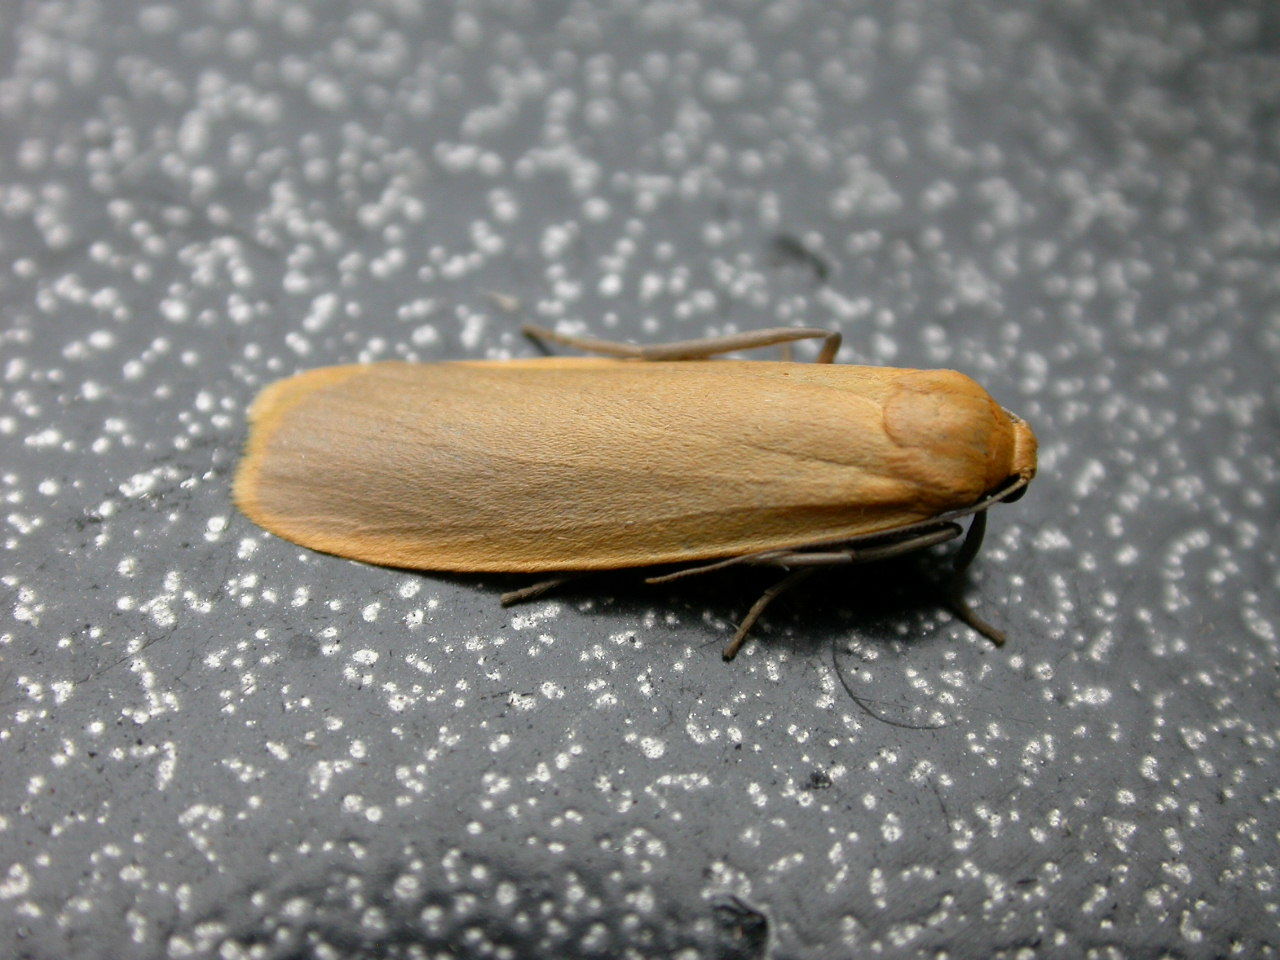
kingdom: Animalia
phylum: Arthropoda
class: Insecta
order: Lepidoptera
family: Erebidae
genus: Wittia
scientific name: Wittia sororcula
